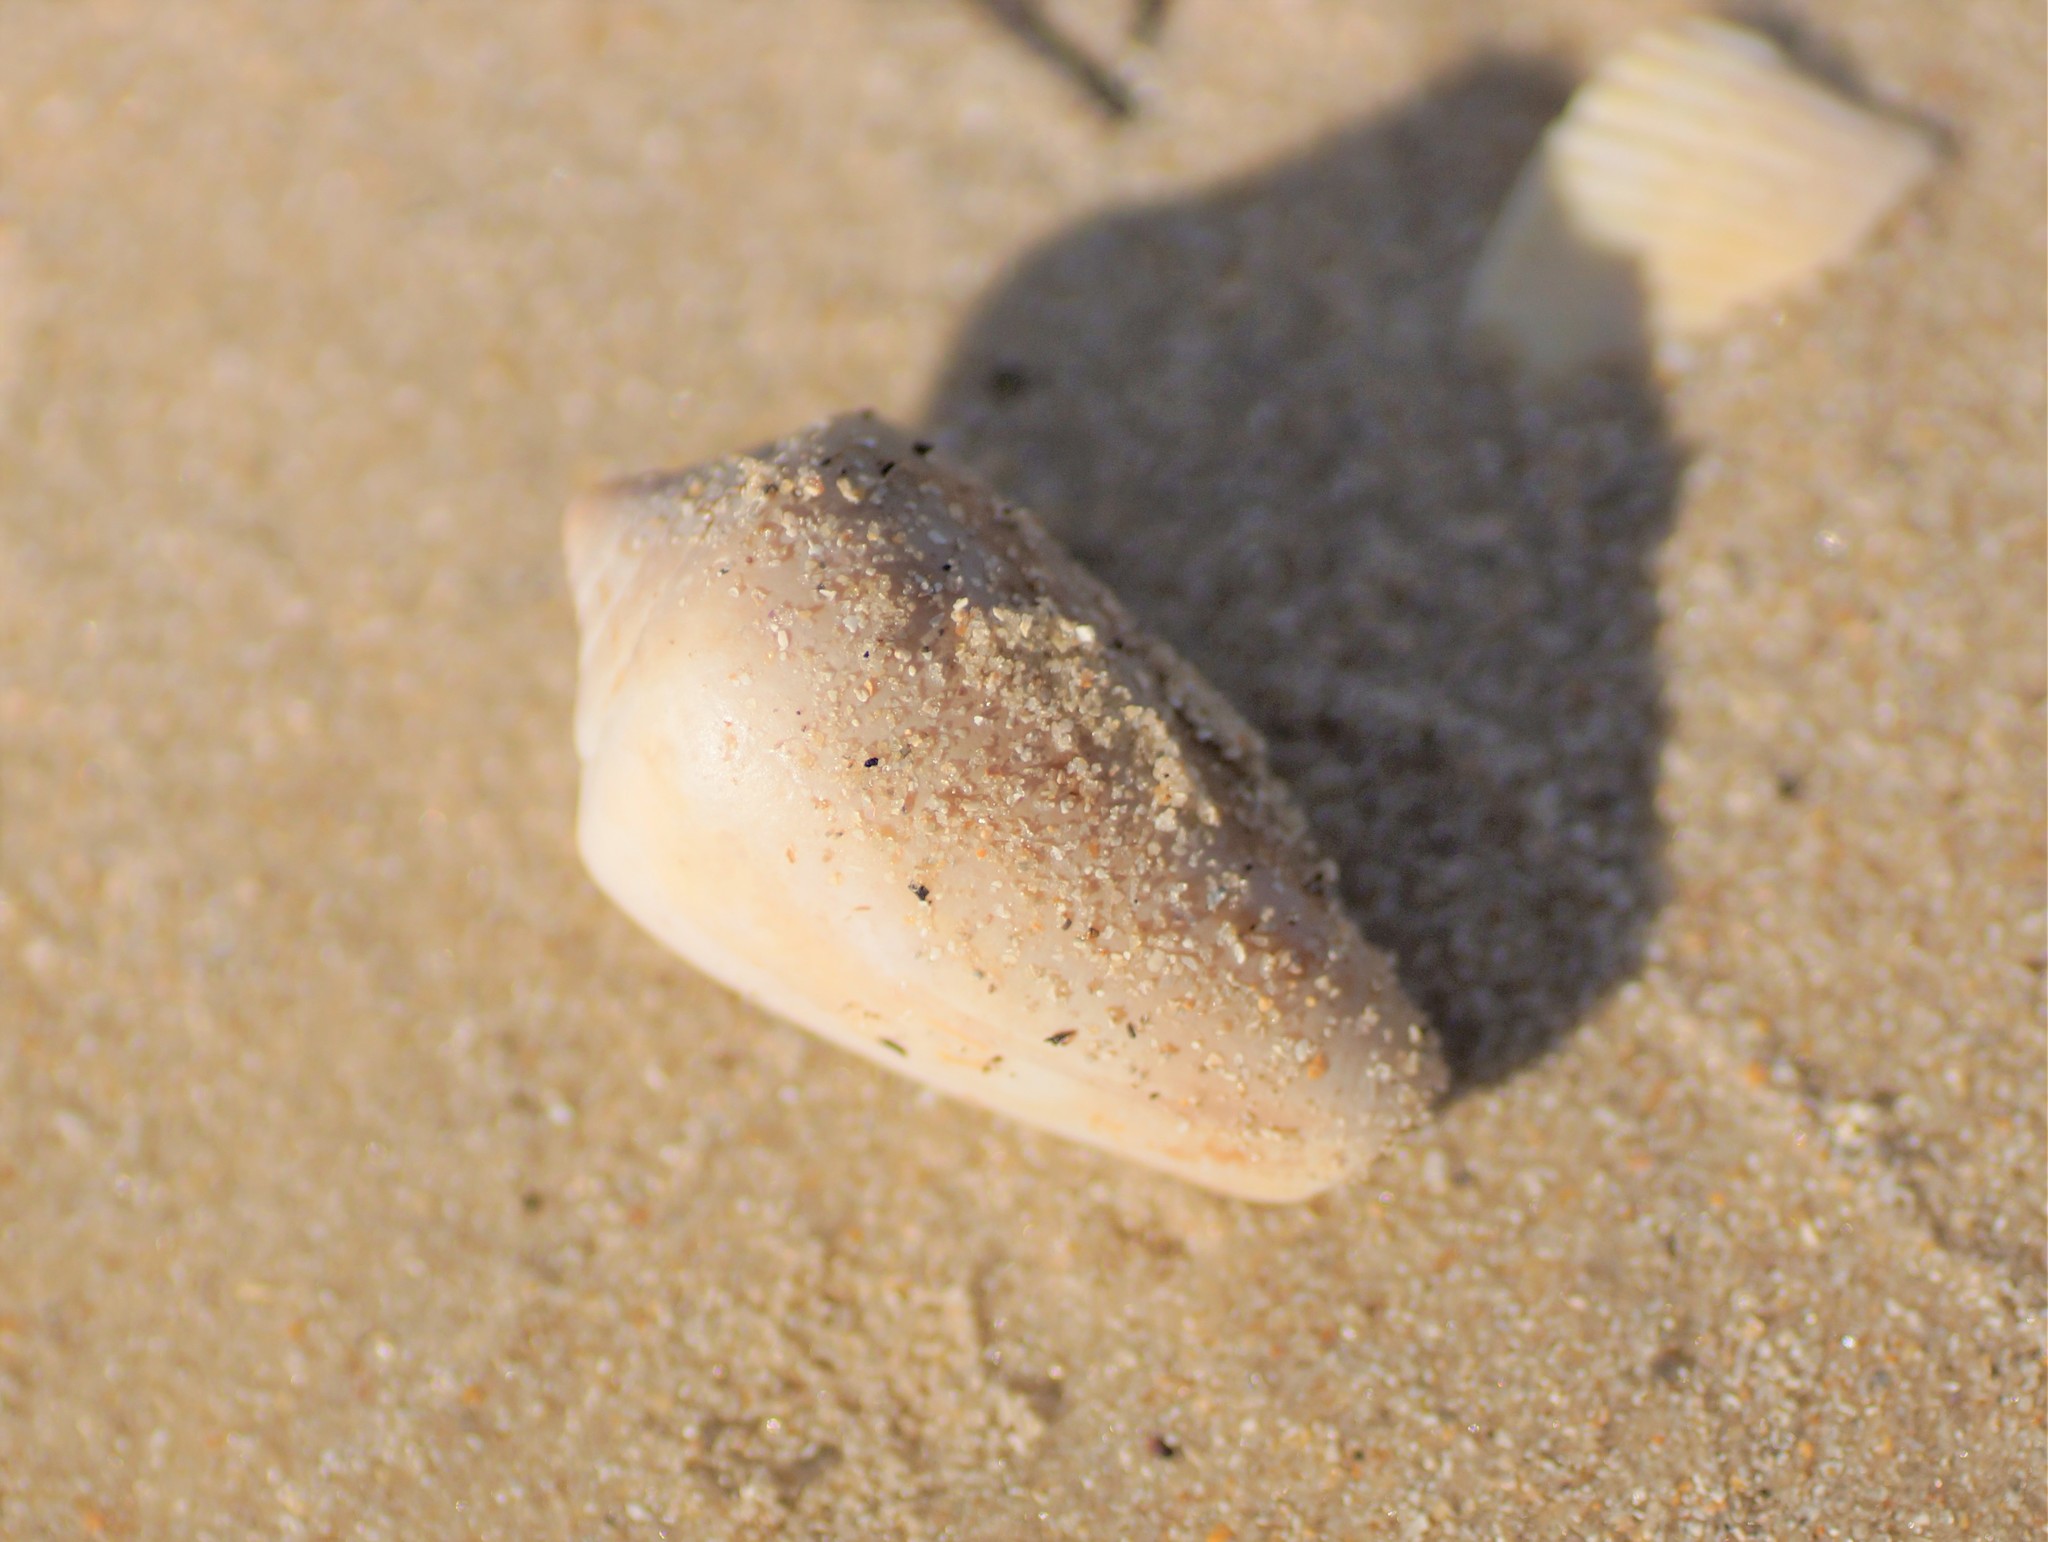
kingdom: Animalia
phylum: Mollusca
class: Gastropoda
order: Neogastropoda
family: Conidae
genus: Conus
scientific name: Conus anemone
